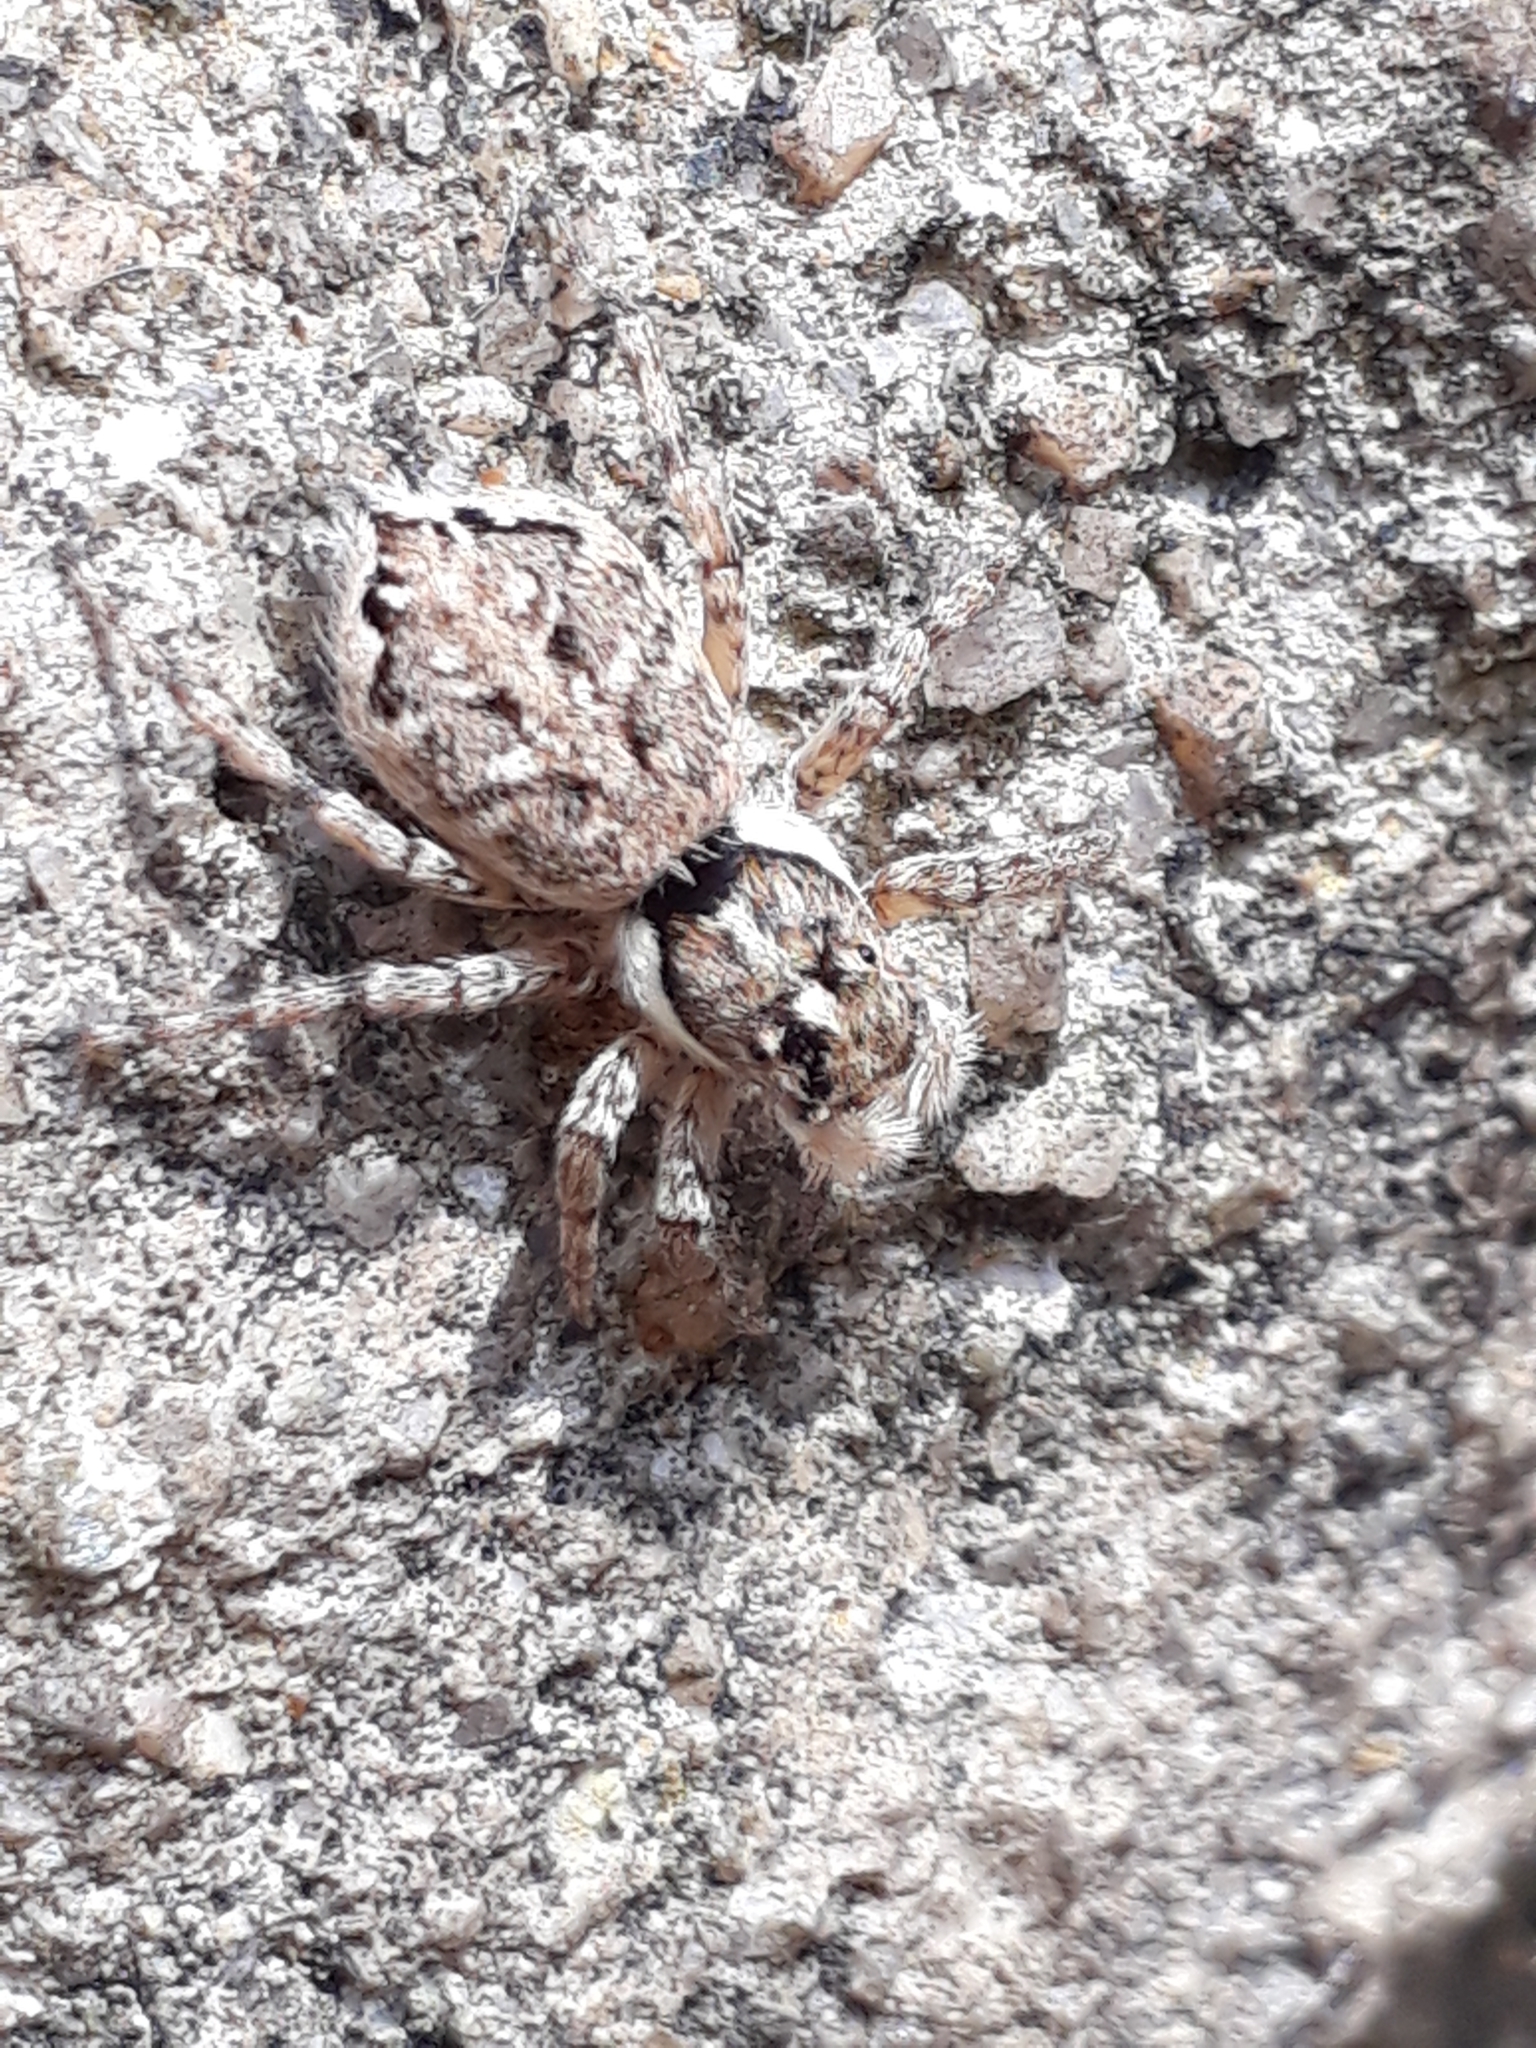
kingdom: Animalia
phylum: Arthropoda
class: Arachnida
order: Araneae
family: Salticidae
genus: Menemerus
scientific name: Menemerus semilimbatus
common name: Jumping spider
